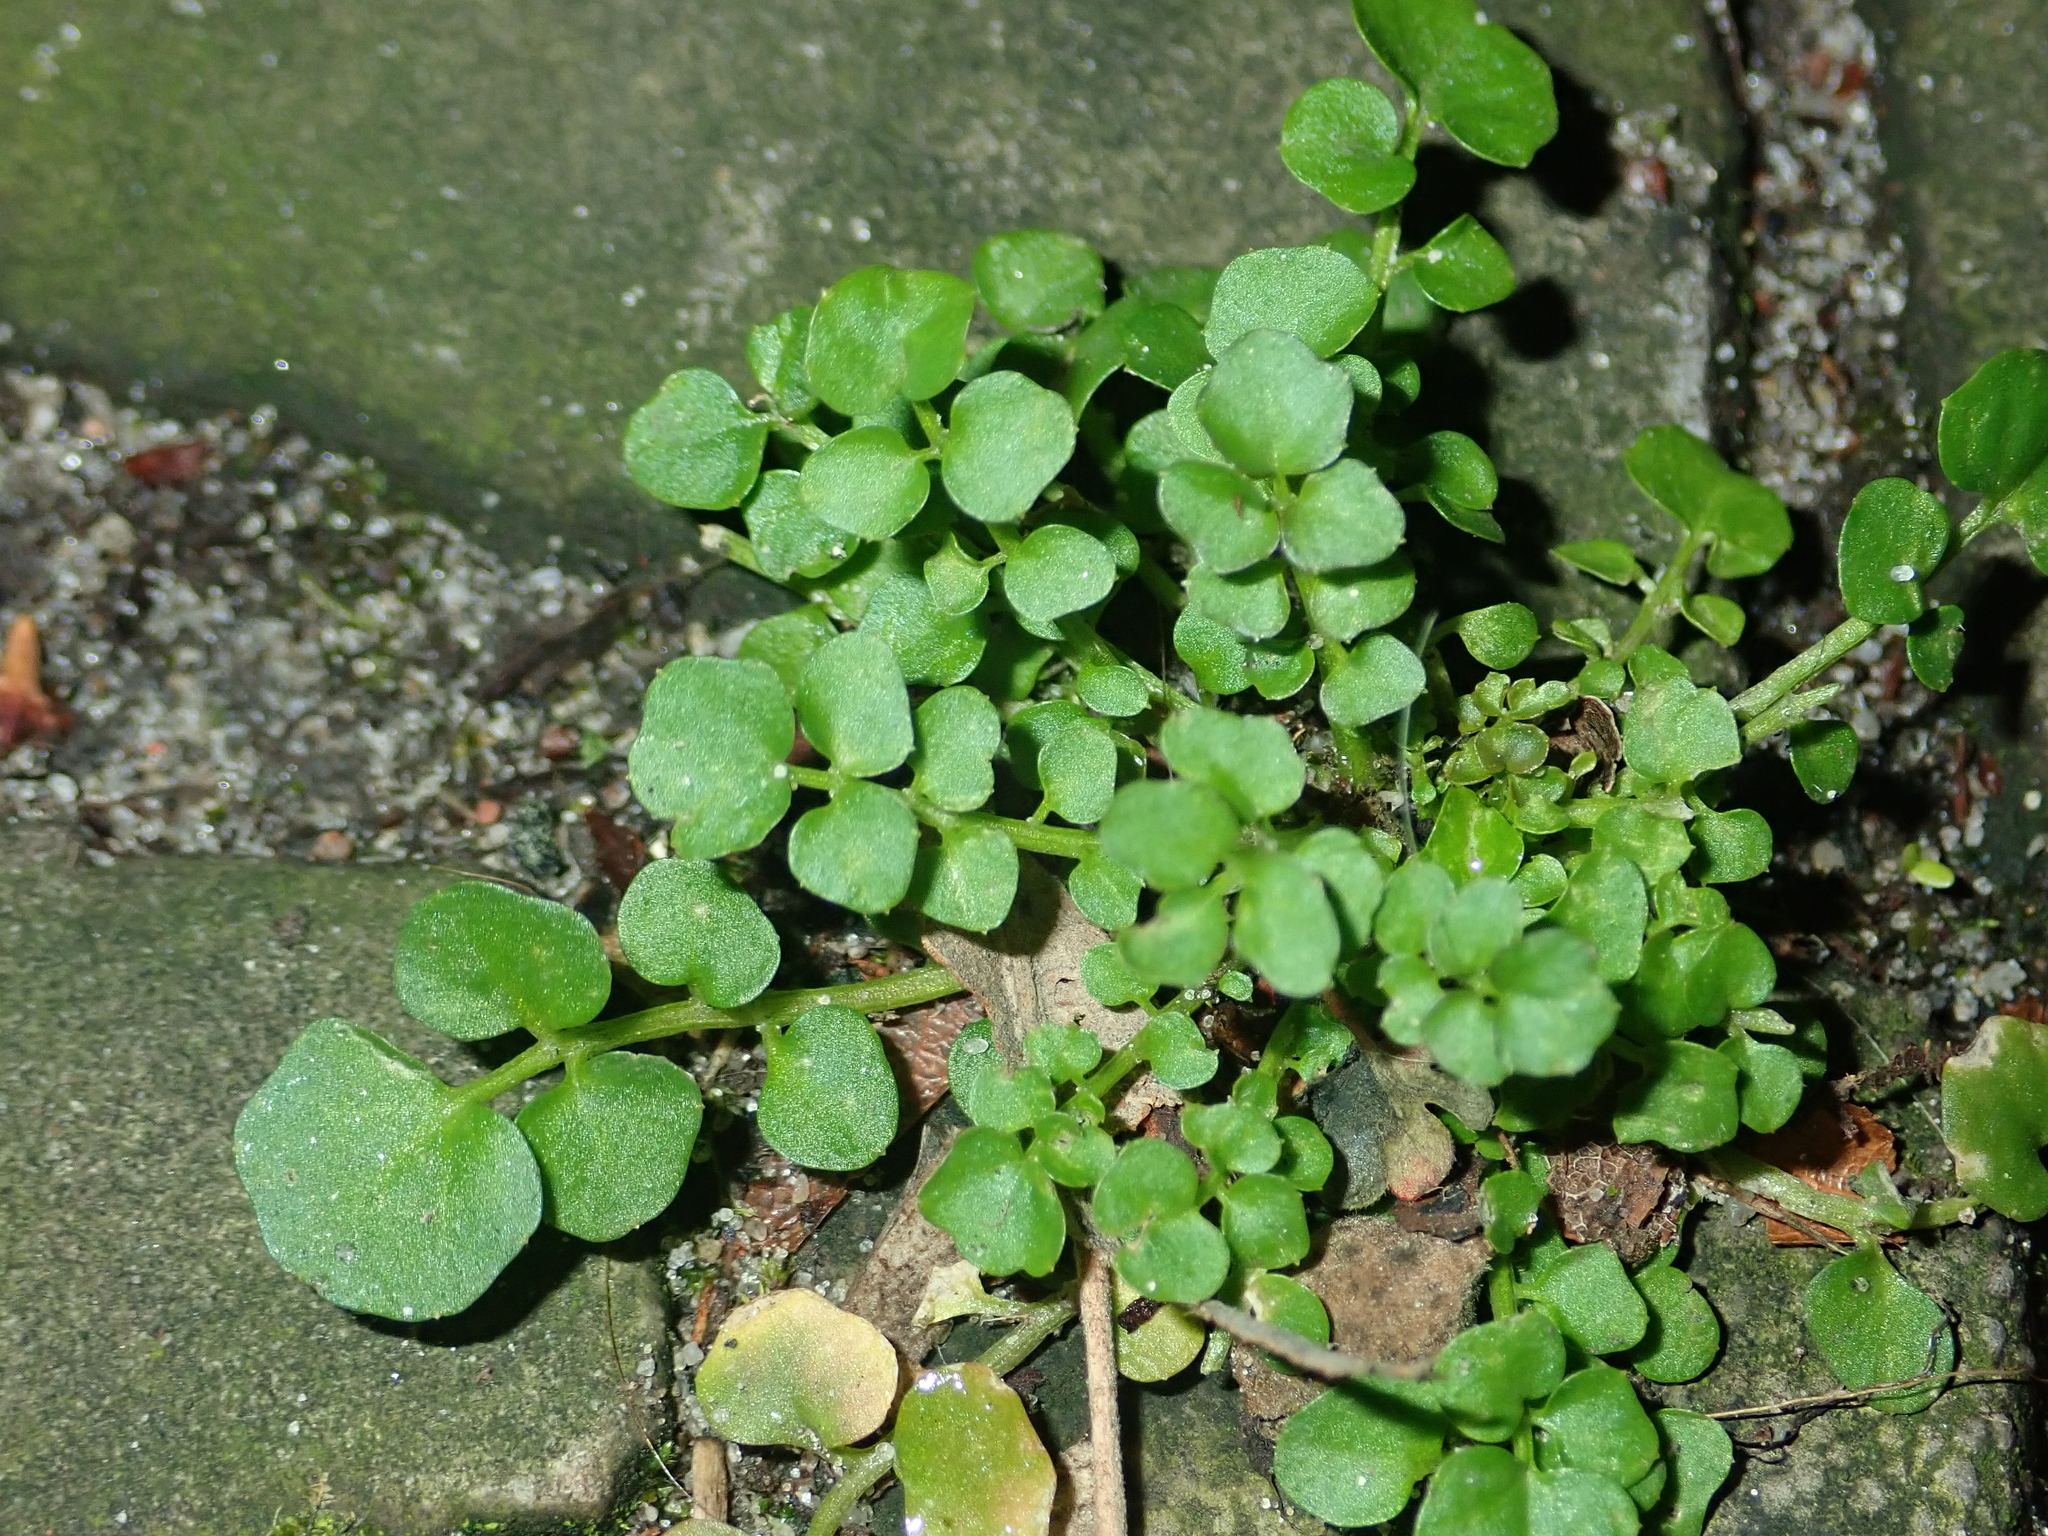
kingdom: Plantae
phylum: Tracheophyta
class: Magnoliopsida
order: Brassicales
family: Brassicaceae
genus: Cardamine
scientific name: Cardamine hirsuta
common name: Hairy bittercress
